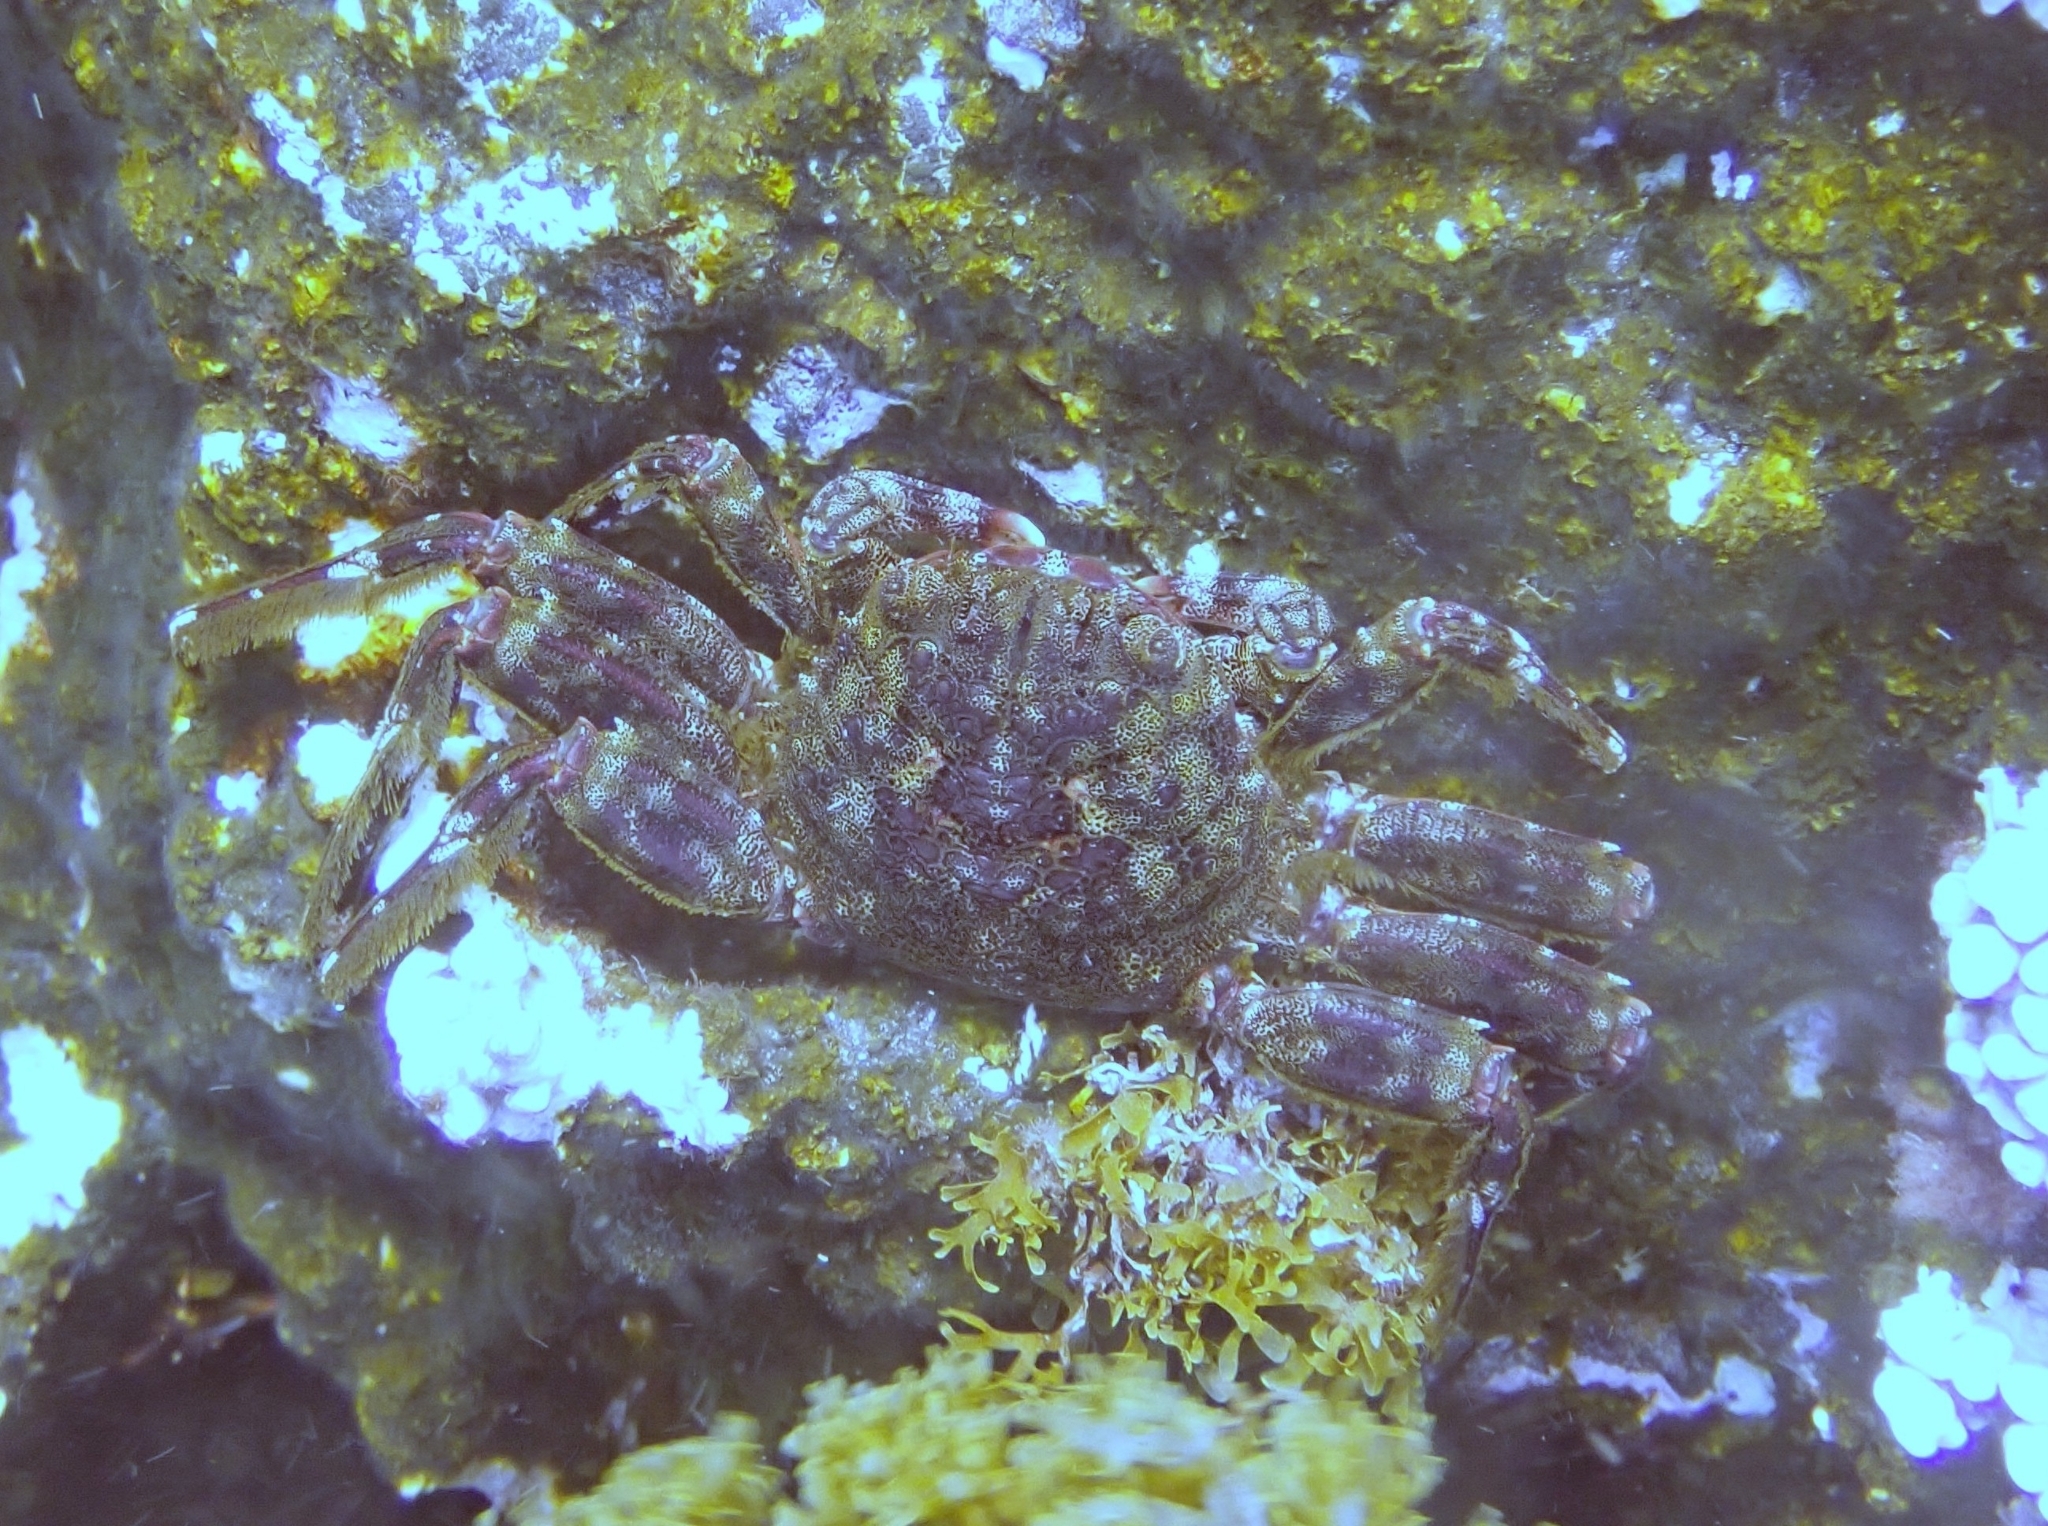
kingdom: Animalia
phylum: Arthropoda
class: Malacostraca
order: Decapoda
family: Plagusiidae
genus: Plagusia
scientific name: Plagusia depressa
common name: Flattened crab
